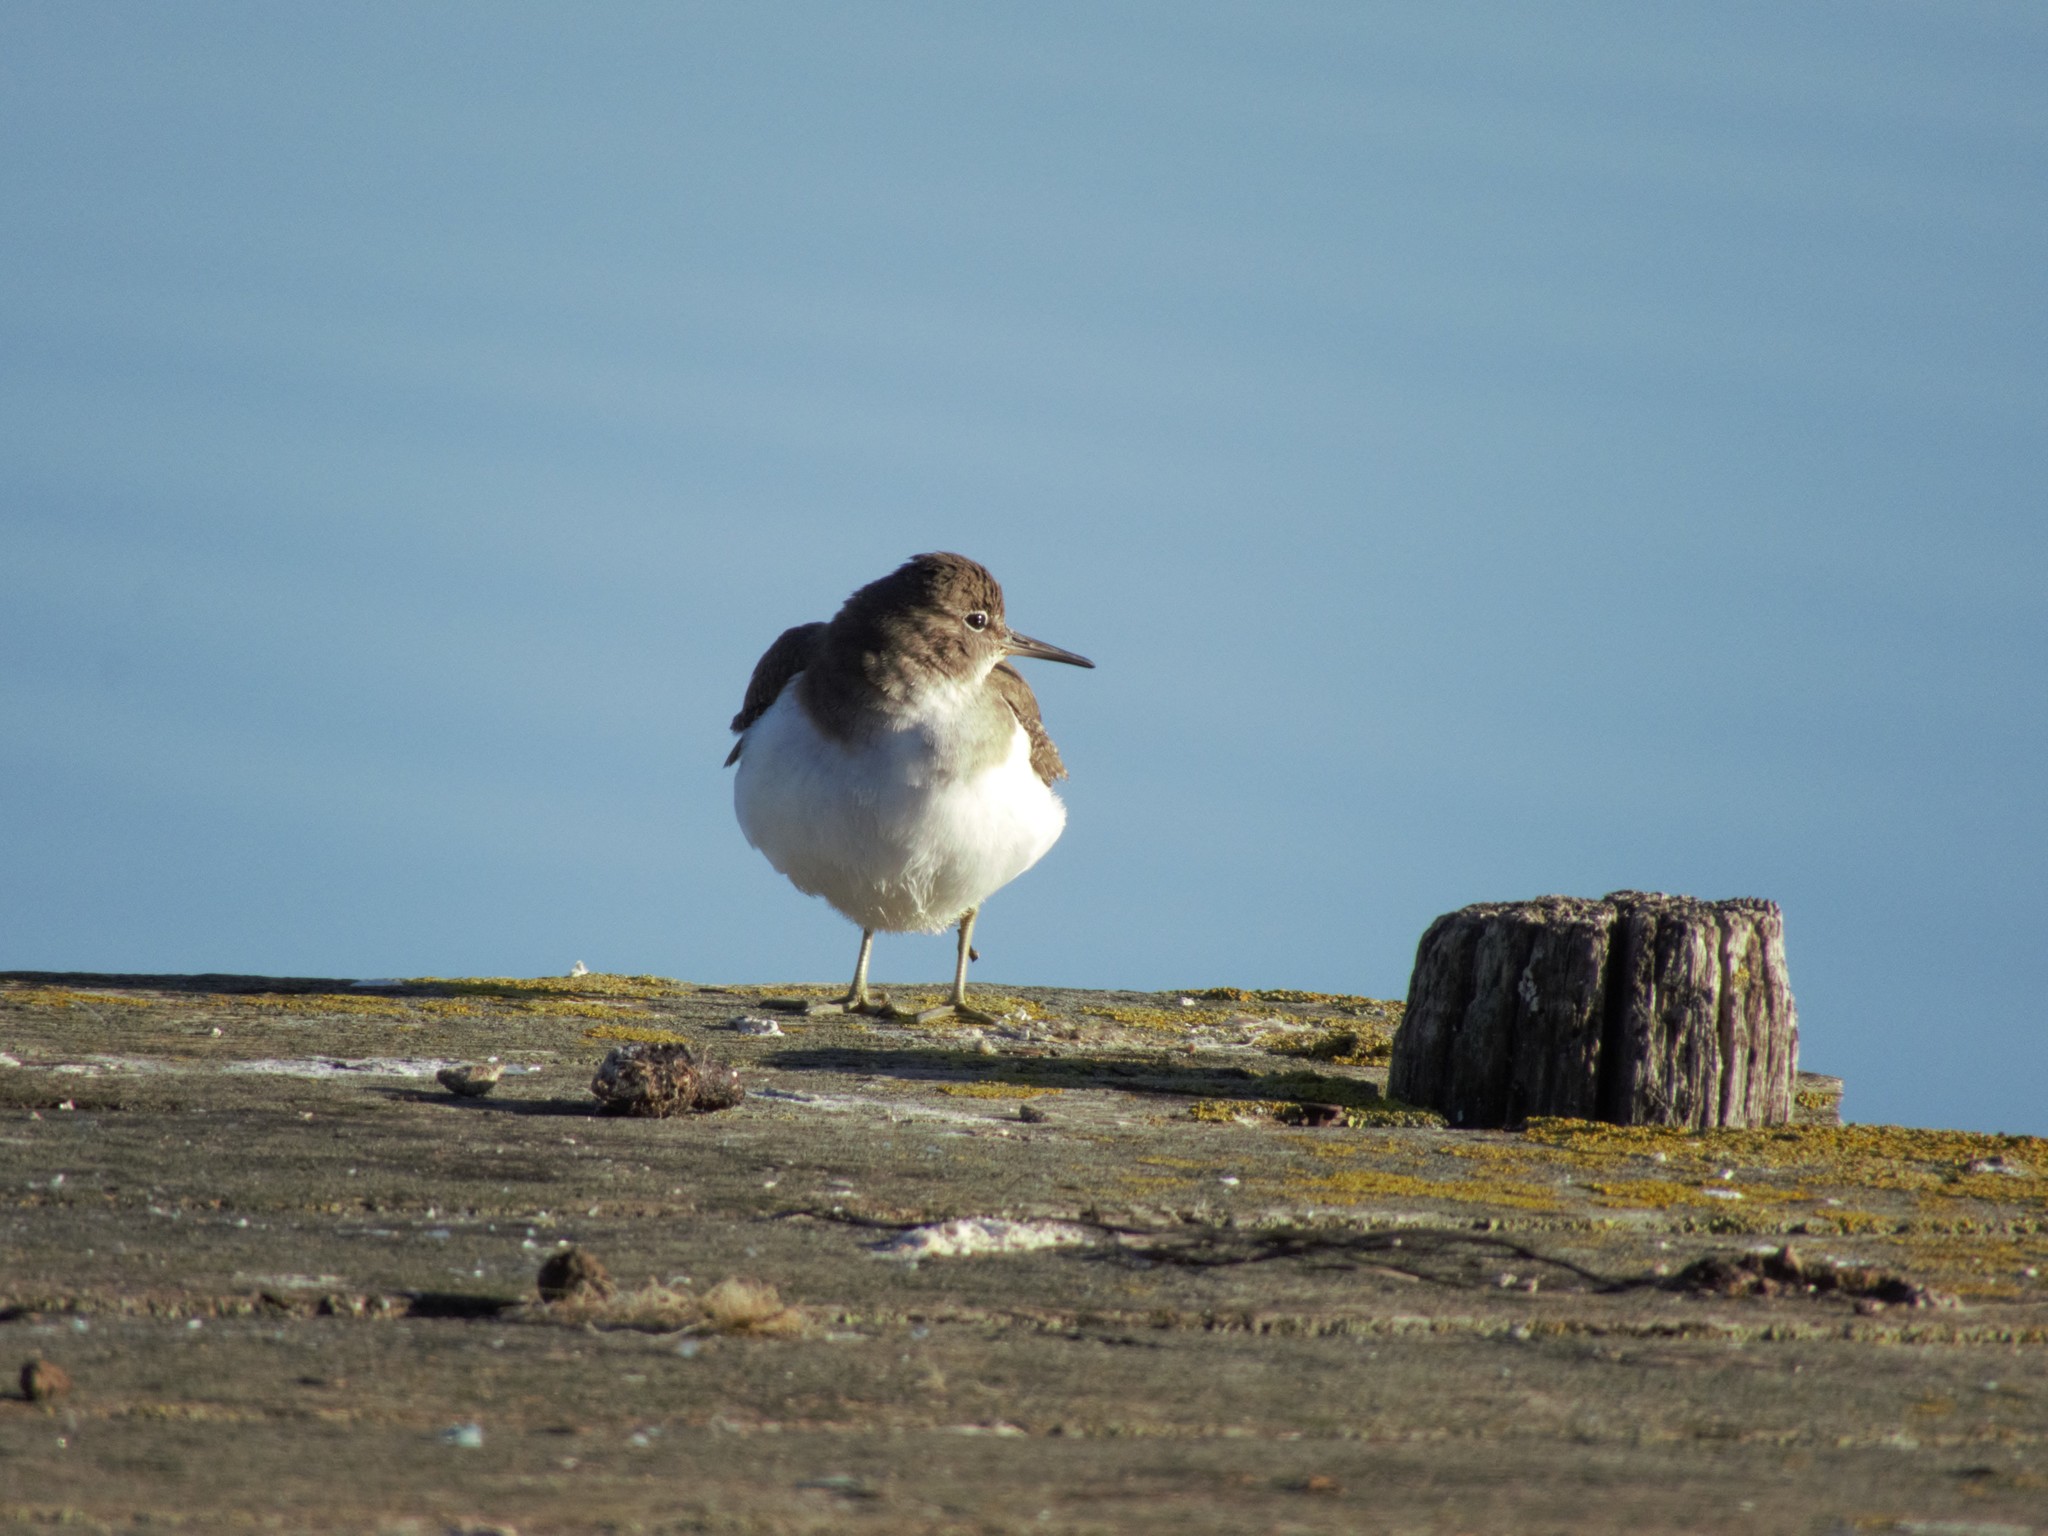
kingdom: Animalia
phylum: Chordata
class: Aves
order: Charadriiformes
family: Scolopacidae
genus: Actitis
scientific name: Actitis hypoleucos
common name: Common sandpiper
